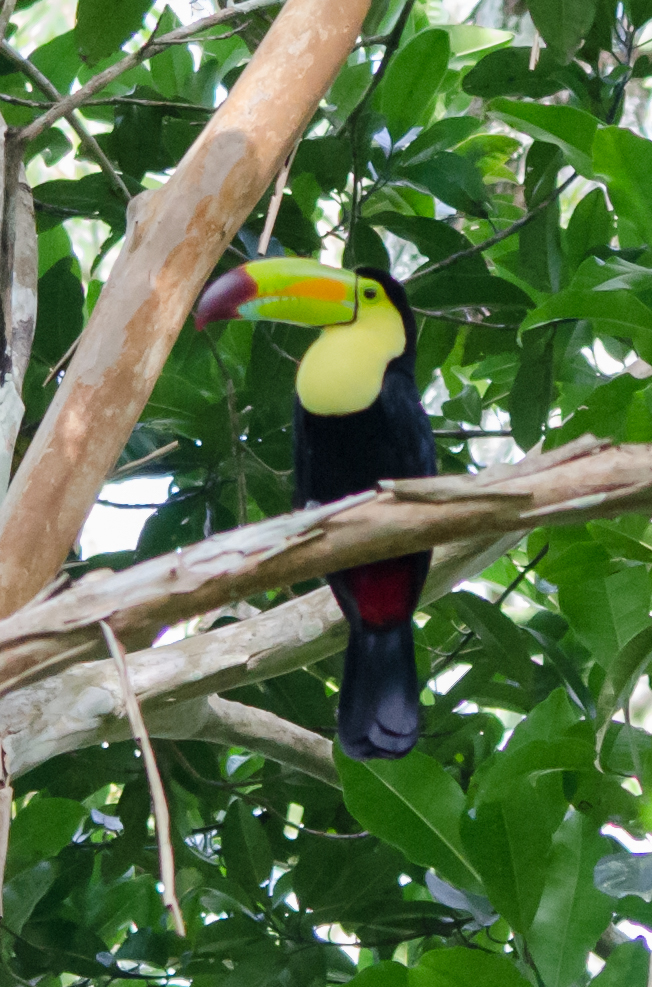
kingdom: Animalia
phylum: Chordata
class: Aves
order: Piciformes
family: Ramphastidae
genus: Ramphastos
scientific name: Ramphastos sulfuratus
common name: Keel-billed toucan
